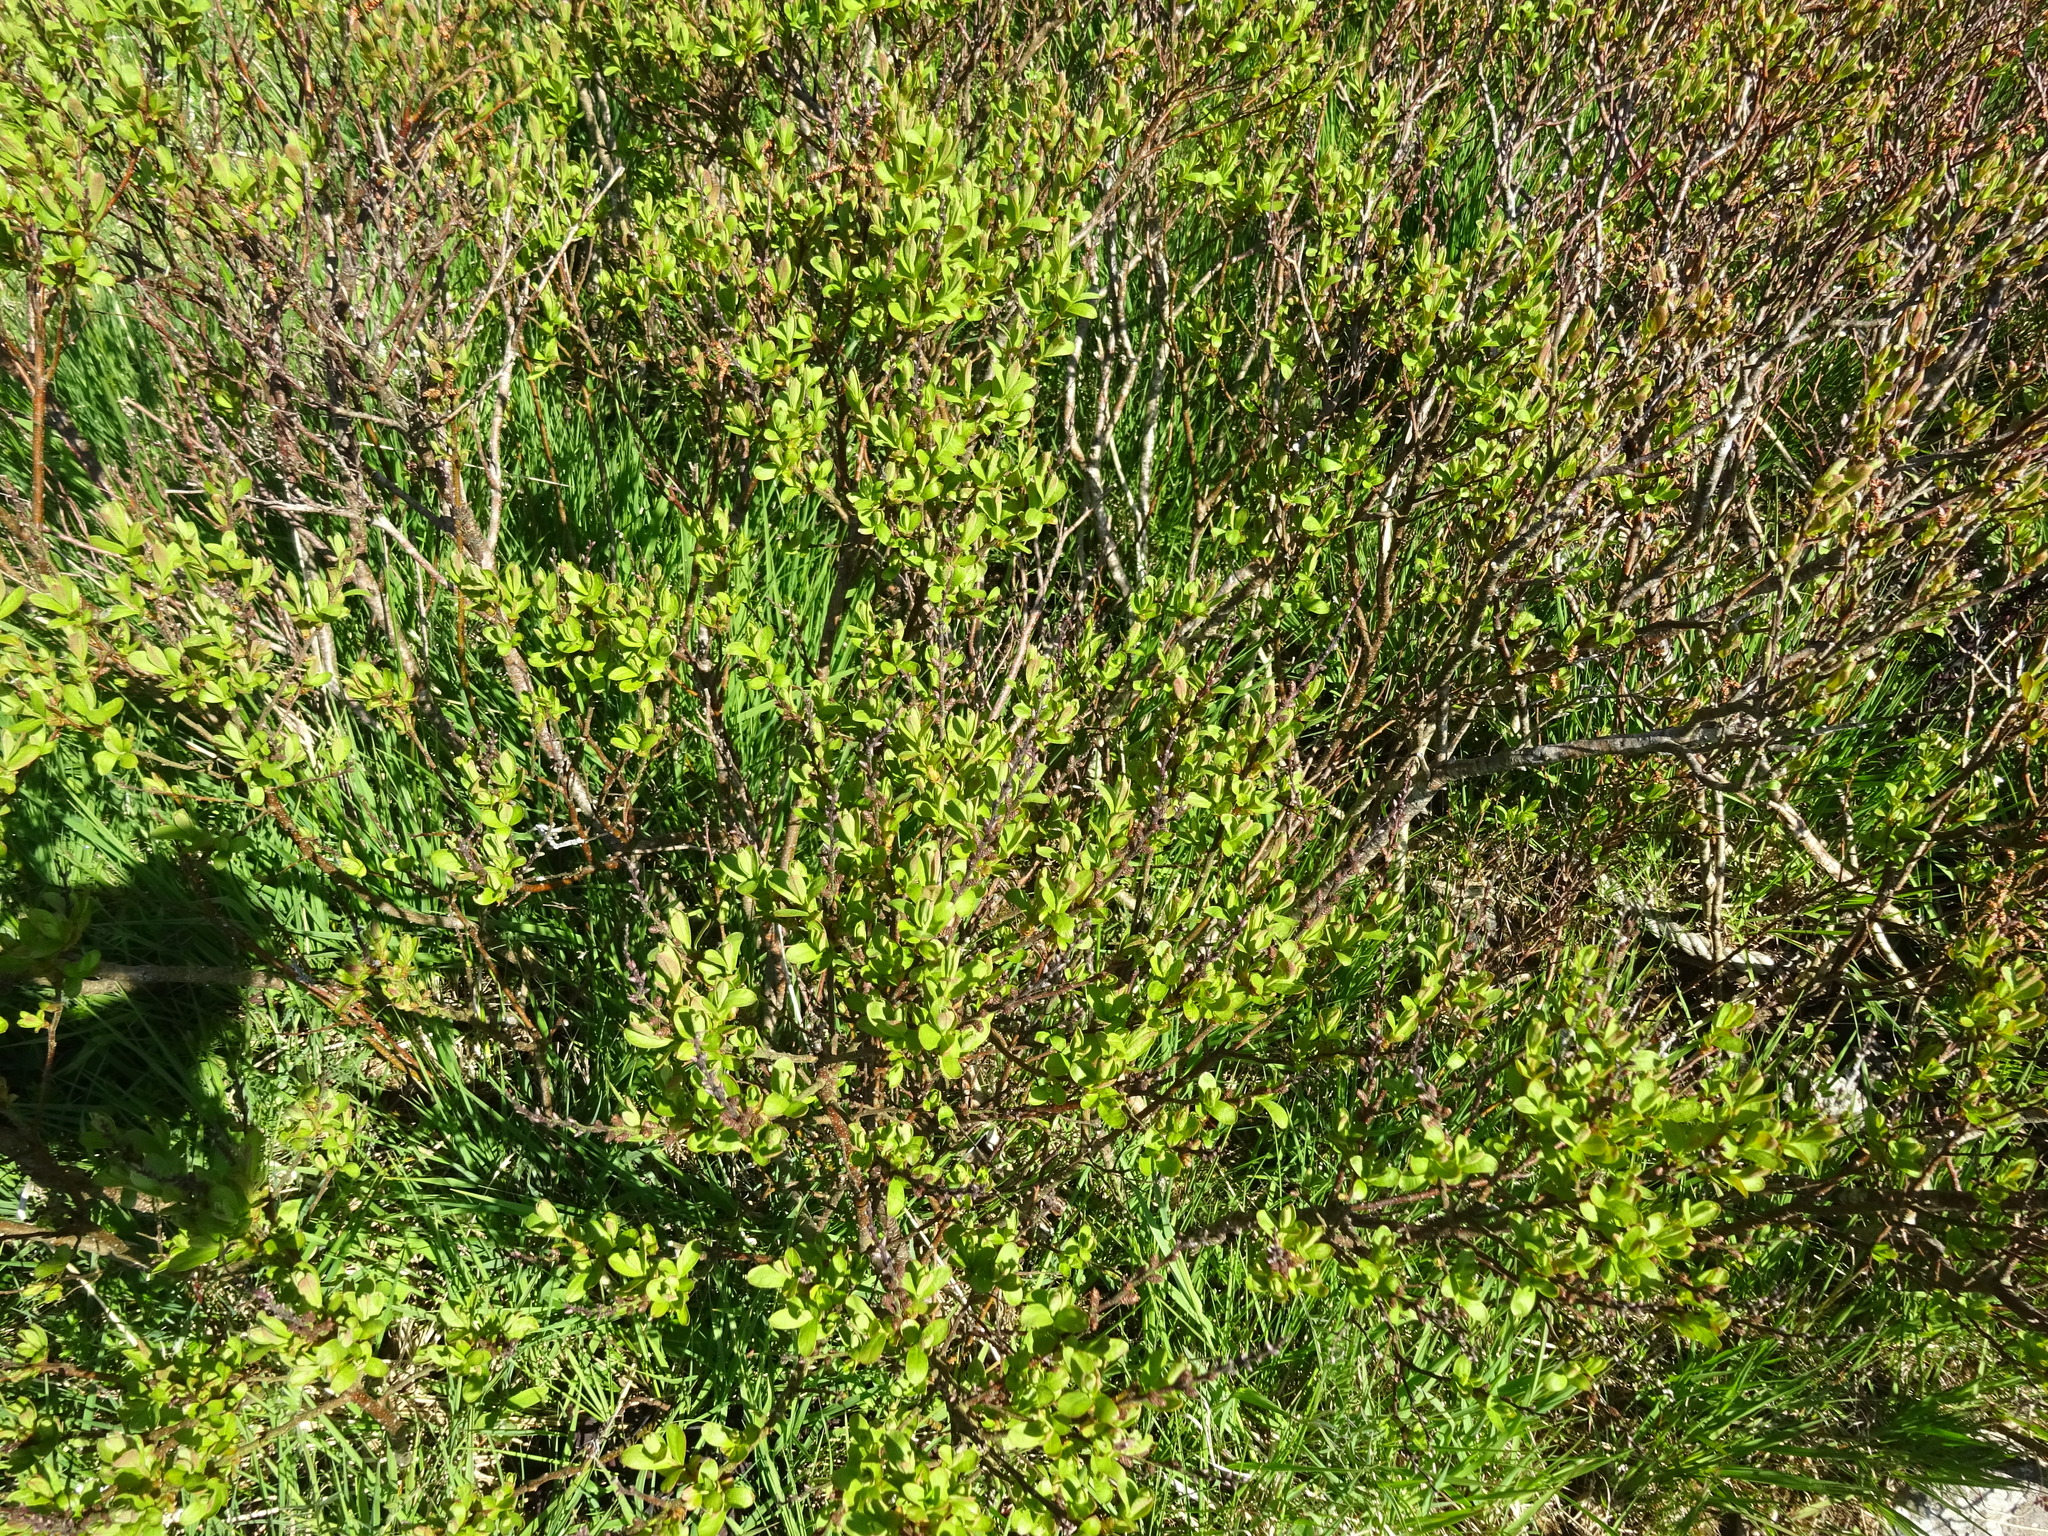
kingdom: Plantae
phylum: Tracheophyta
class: Magnoliopsida
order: Fagales
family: Myricaceae
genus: Myrica
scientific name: Myrica gale
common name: Sweet gale
